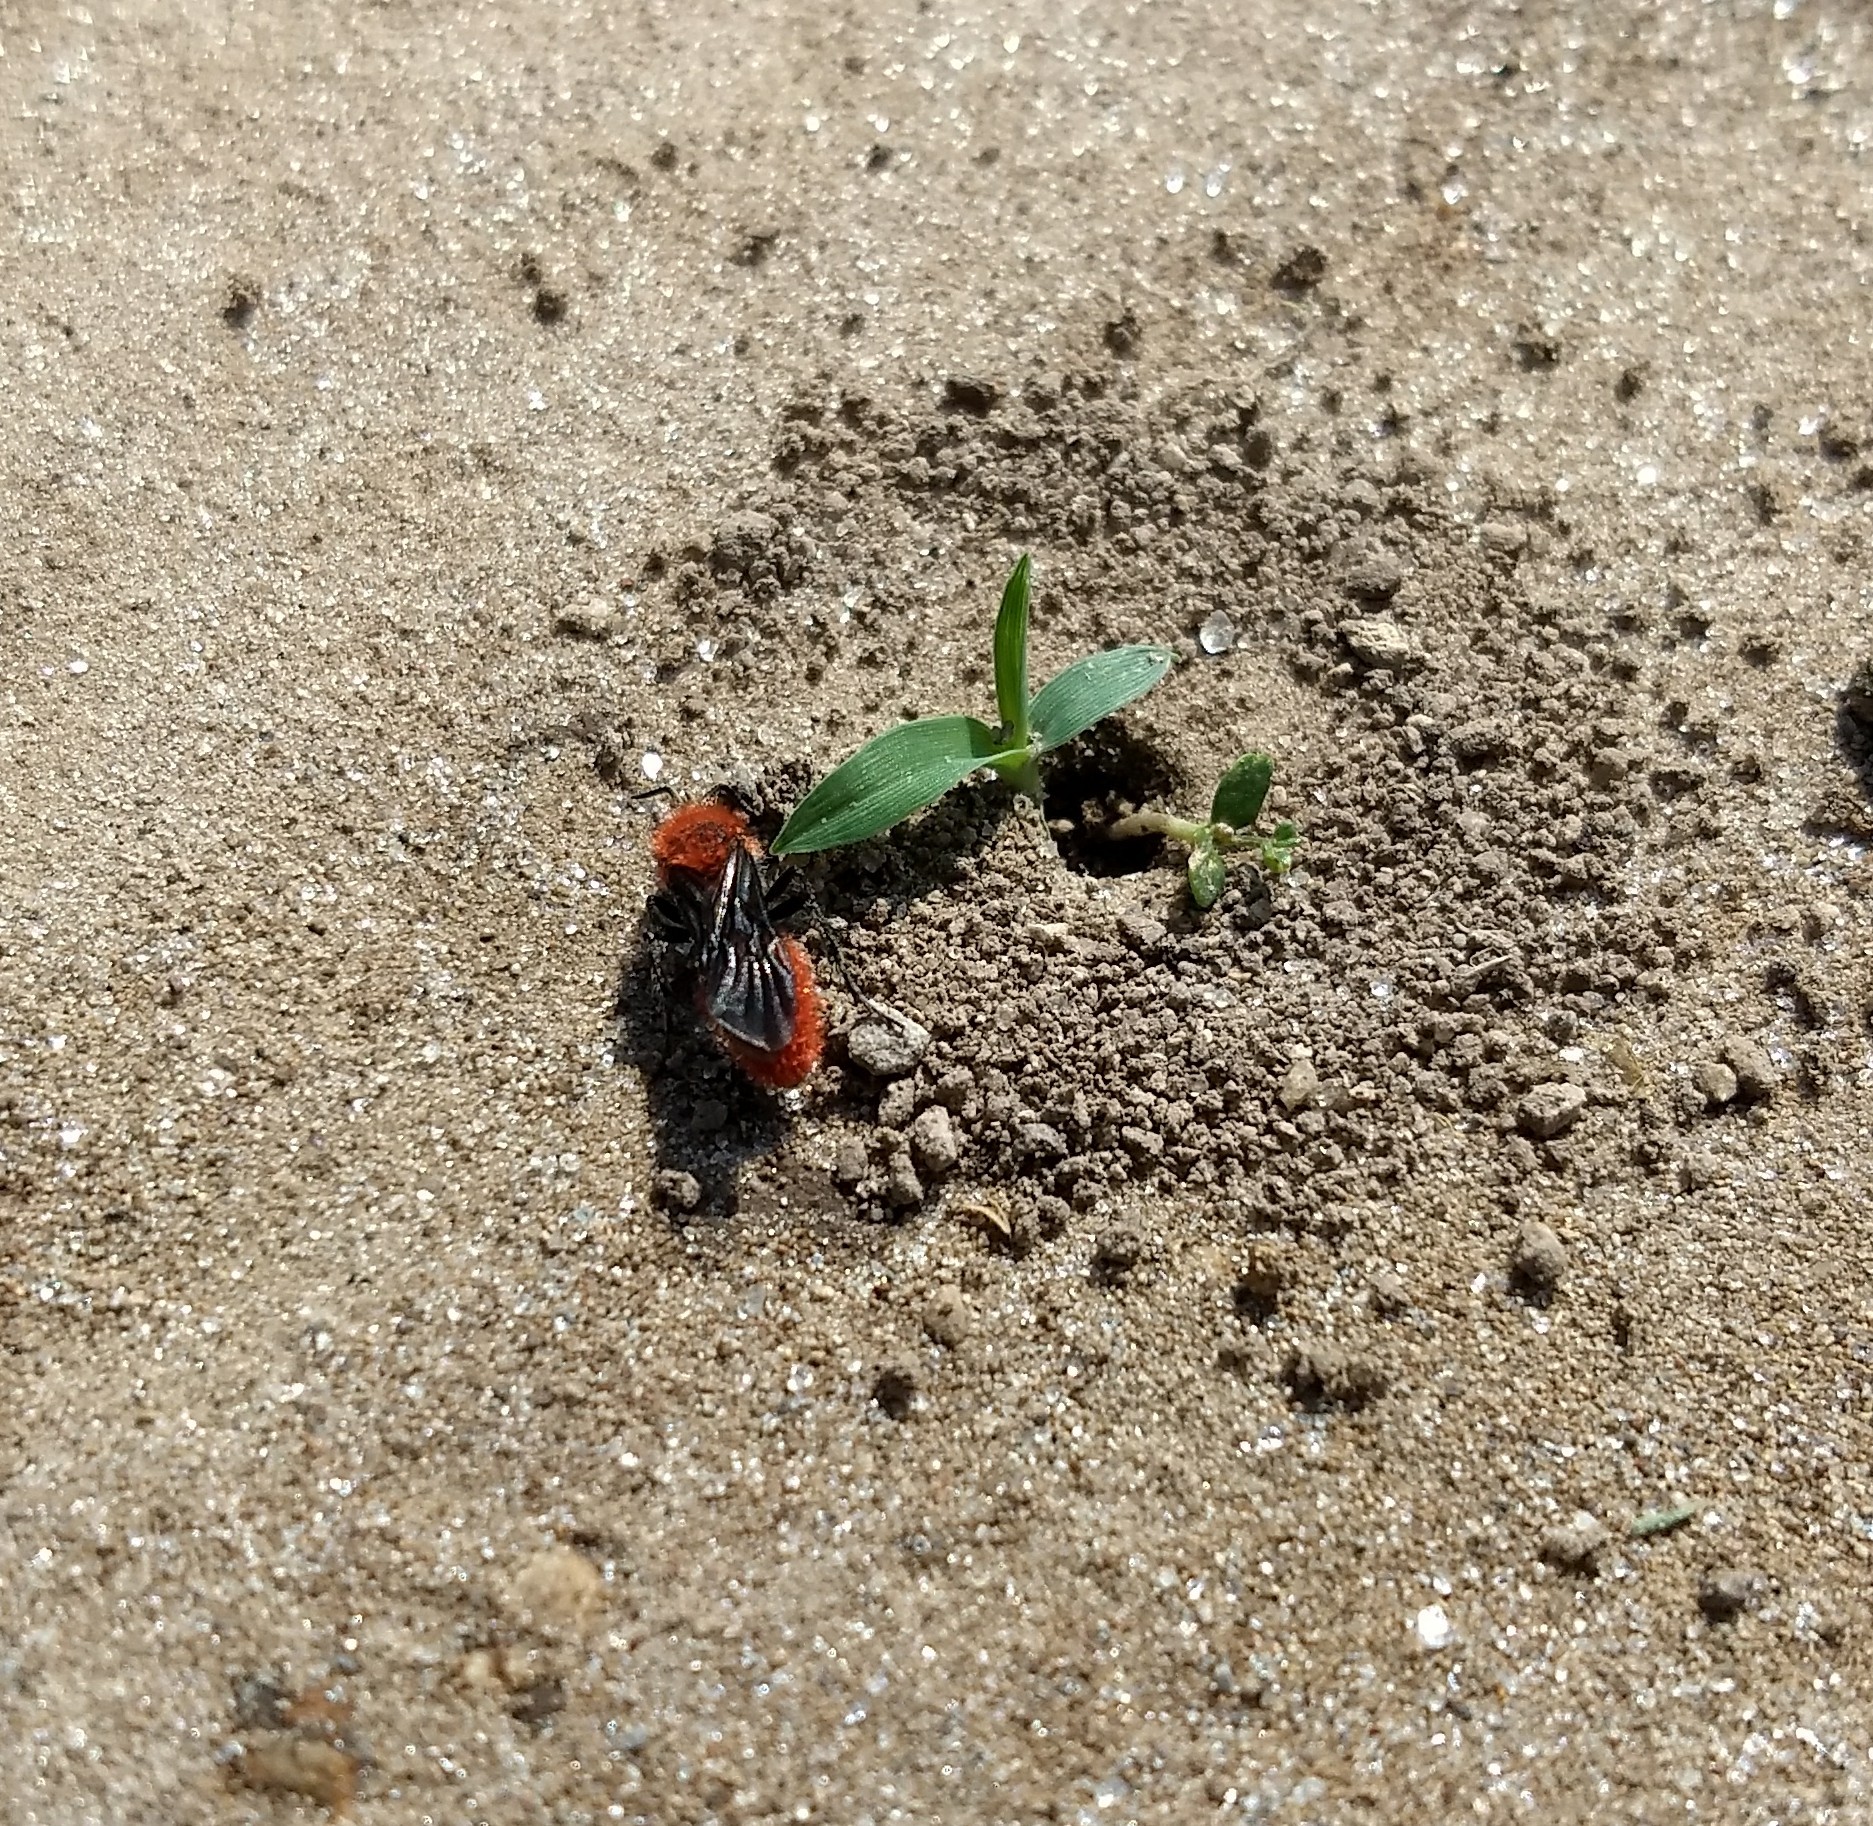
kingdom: Animalia
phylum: Arthropoda
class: Insecta
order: Hymenoptera
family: Mutillidae
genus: Dasymutilla
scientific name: Dasymutilla
